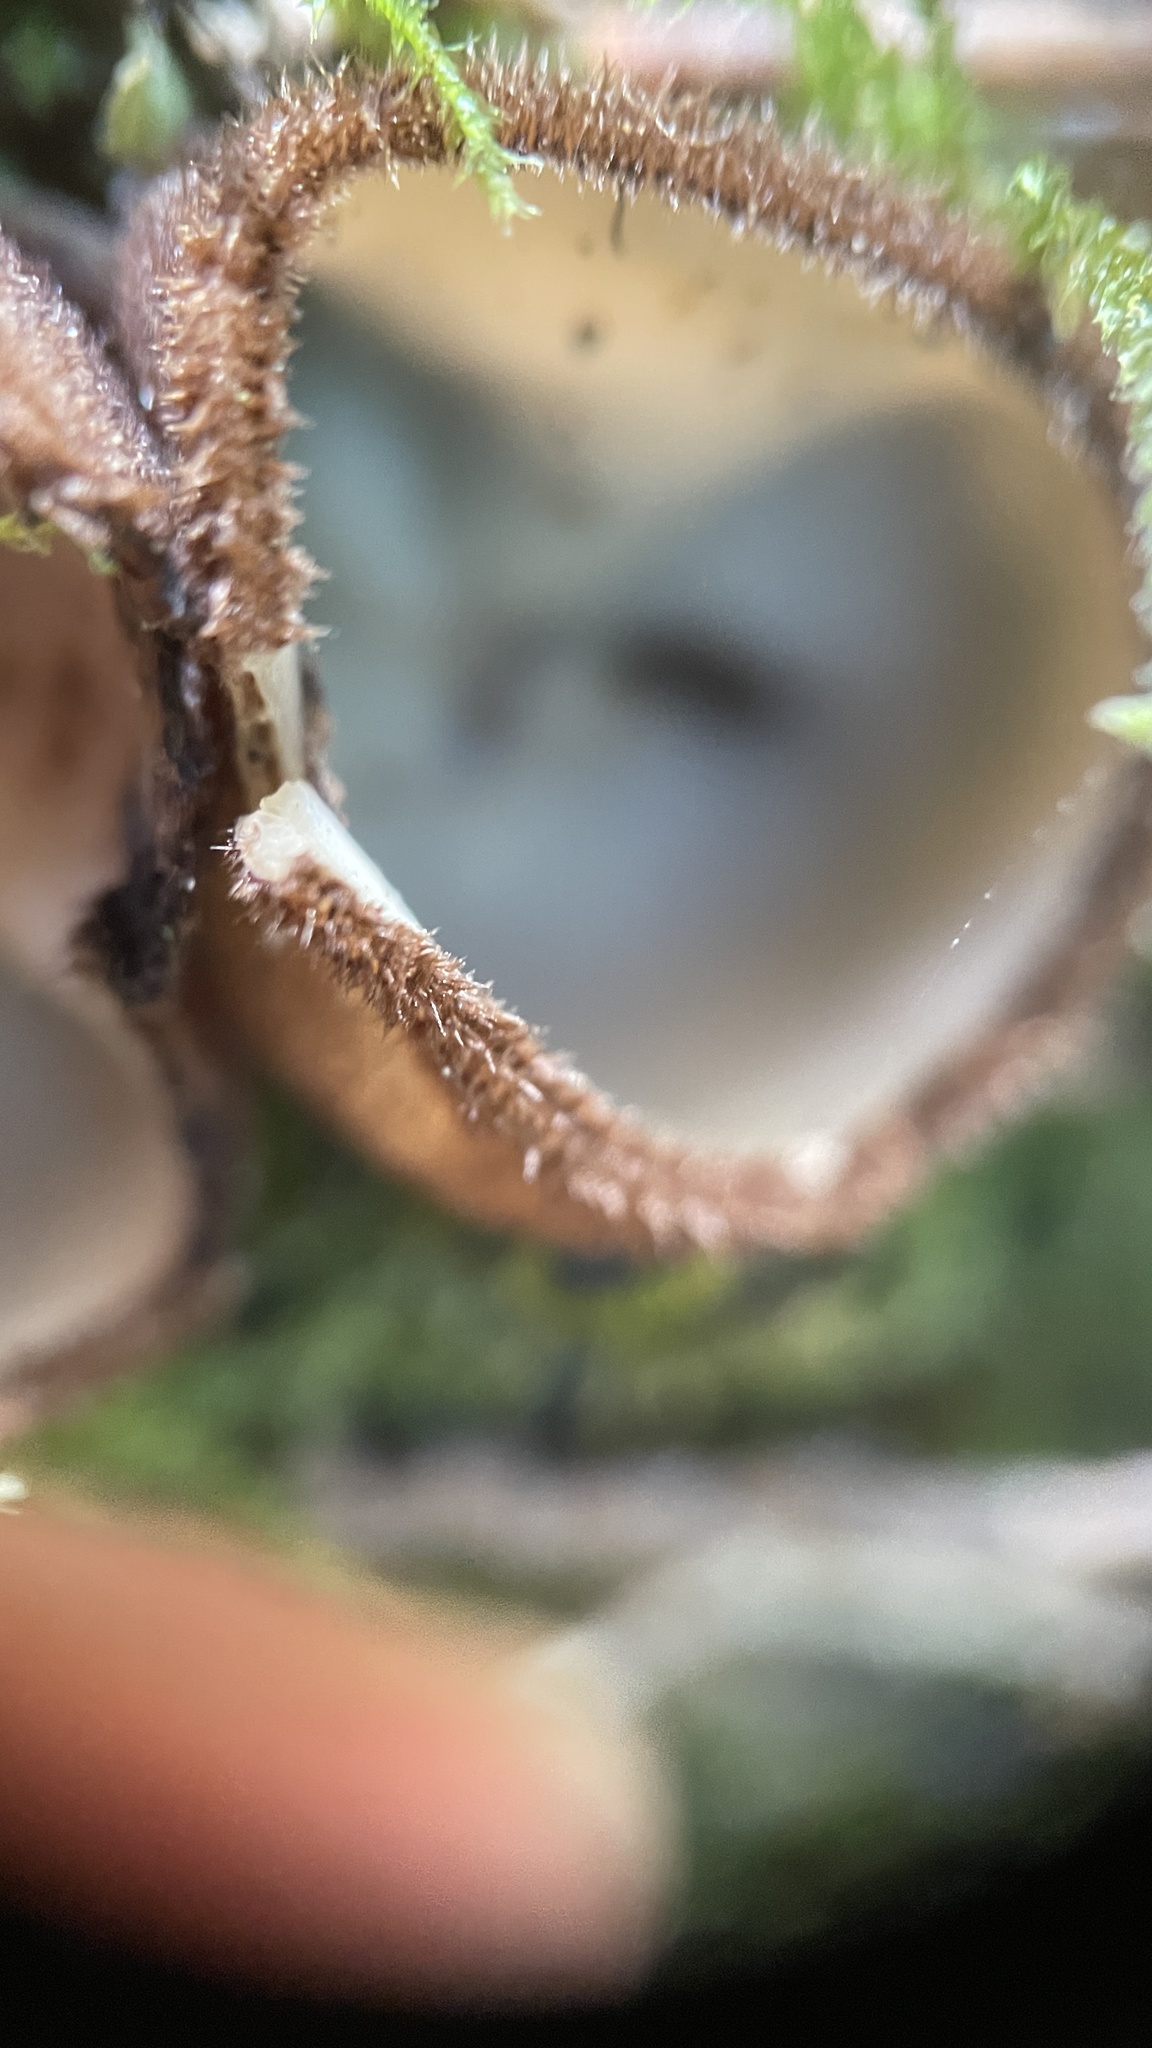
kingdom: Fungi
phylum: Ascomycota
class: Pezizomycetes
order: Pezizales
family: Pyronemataceae
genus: Humaria
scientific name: Humaria hemisphaerica
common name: Glazed cup
